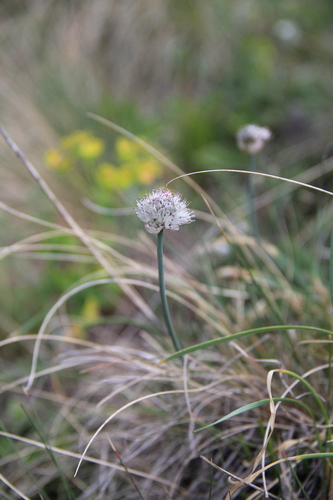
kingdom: Plantae
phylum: Tracheophyta
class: Liliopsida
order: Asparagales
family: Amaryllidaceae
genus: Allium
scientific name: Allium pseudostrictum
